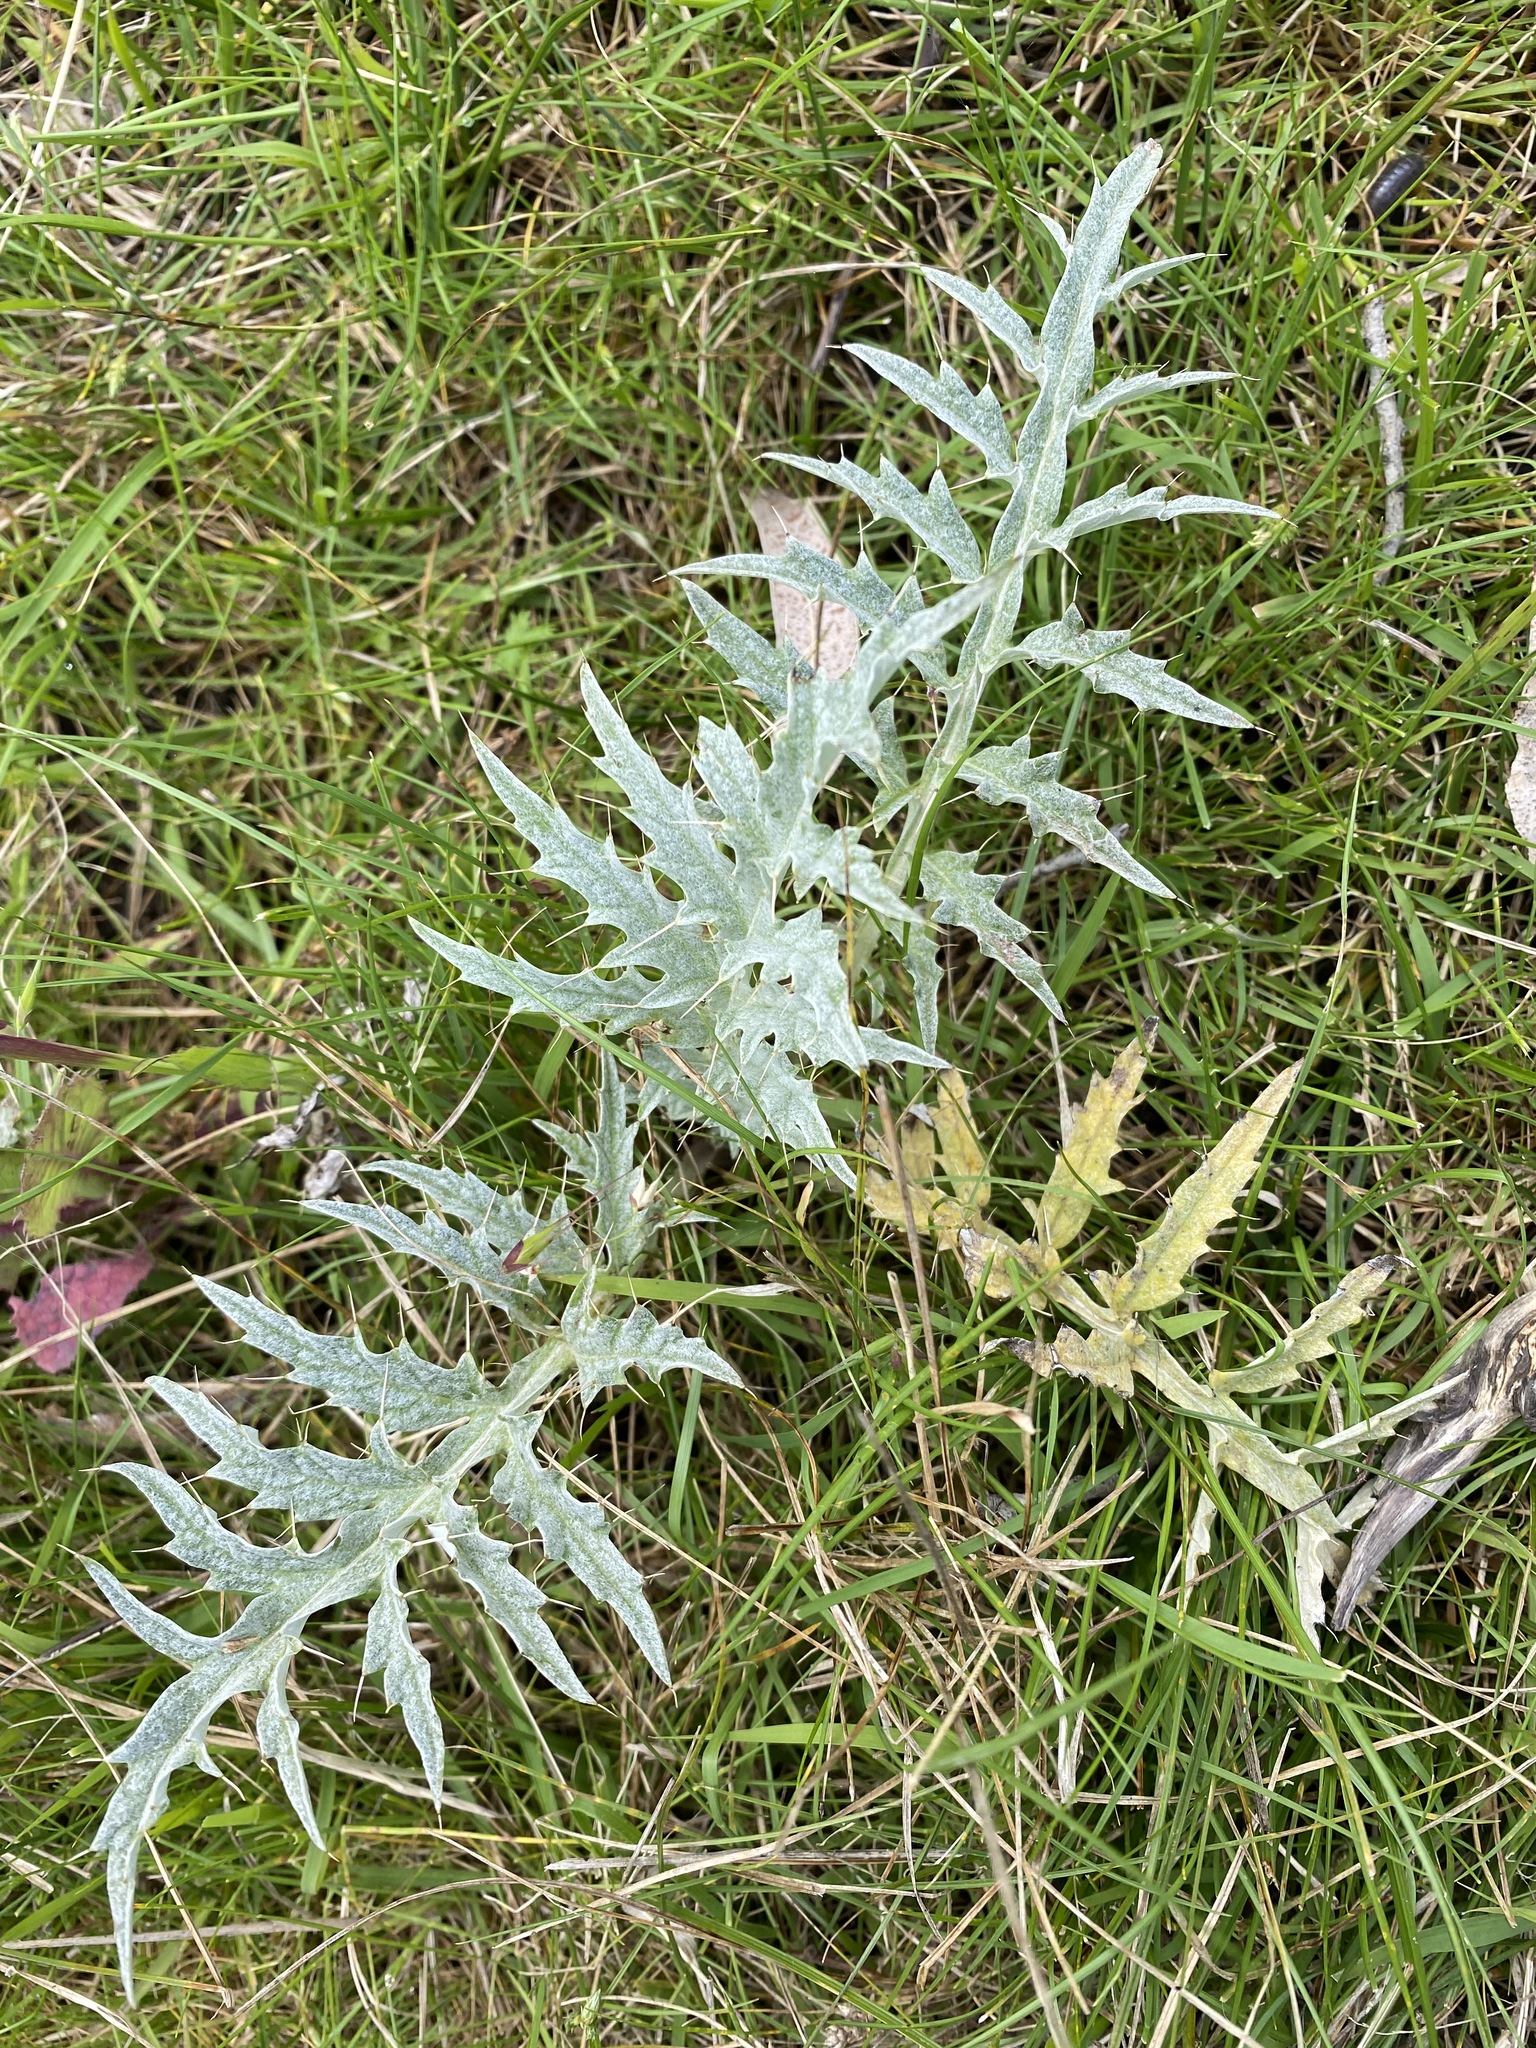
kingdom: Plantae
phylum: Tracheophyta
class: Magnoliopsida
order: Asterales
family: Asteraceae
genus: Cynara
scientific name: Cynara cardunculus
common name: Globe artichoke
